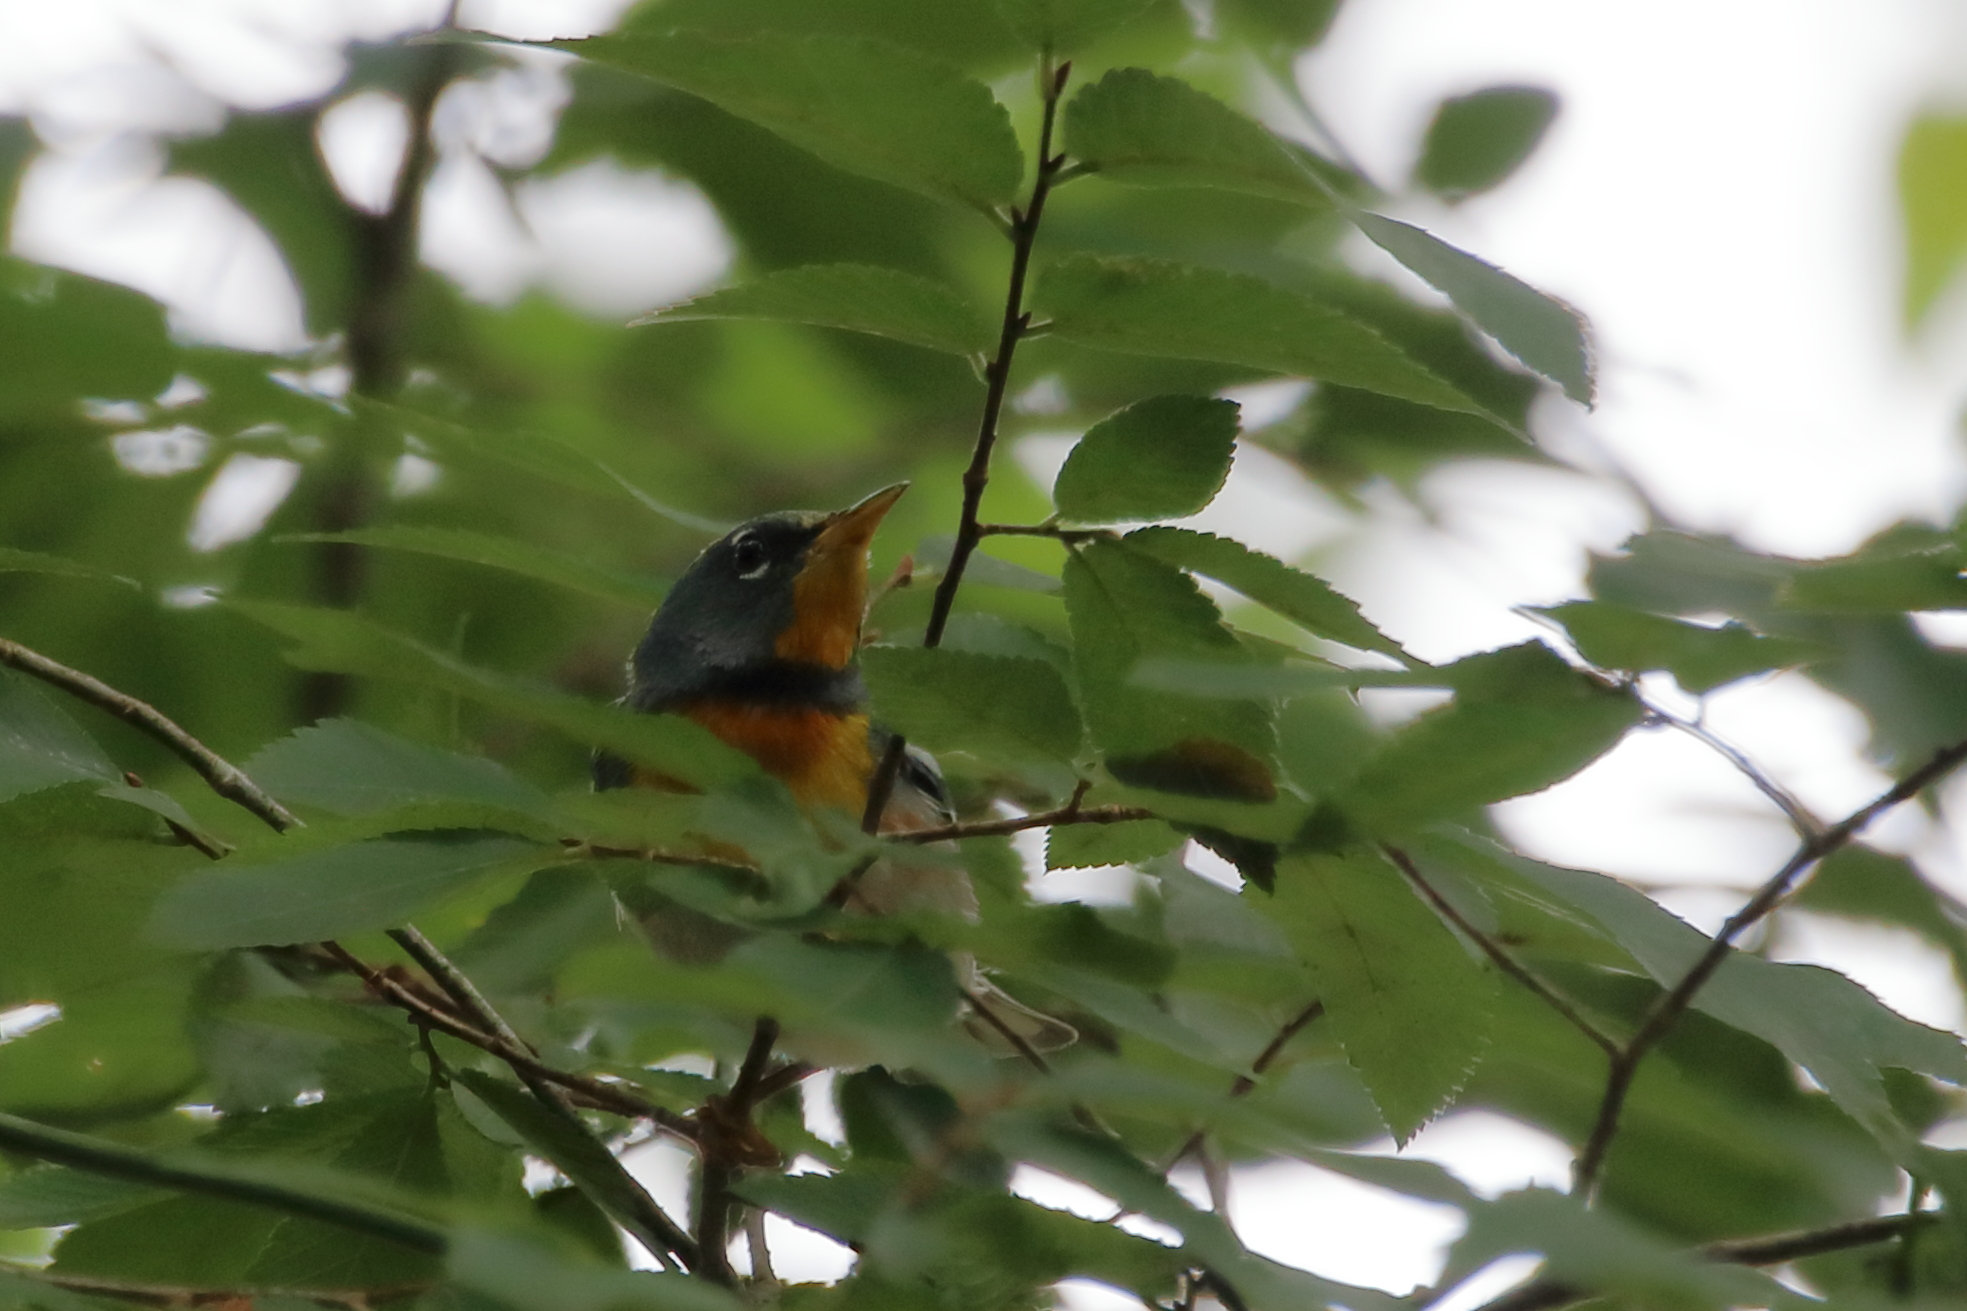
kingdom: Animalia
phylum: Chordata
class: Aves
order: Passeriformes
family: Parulidae
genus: Setophaga
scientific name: Setophaga americana
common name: Northern parula
